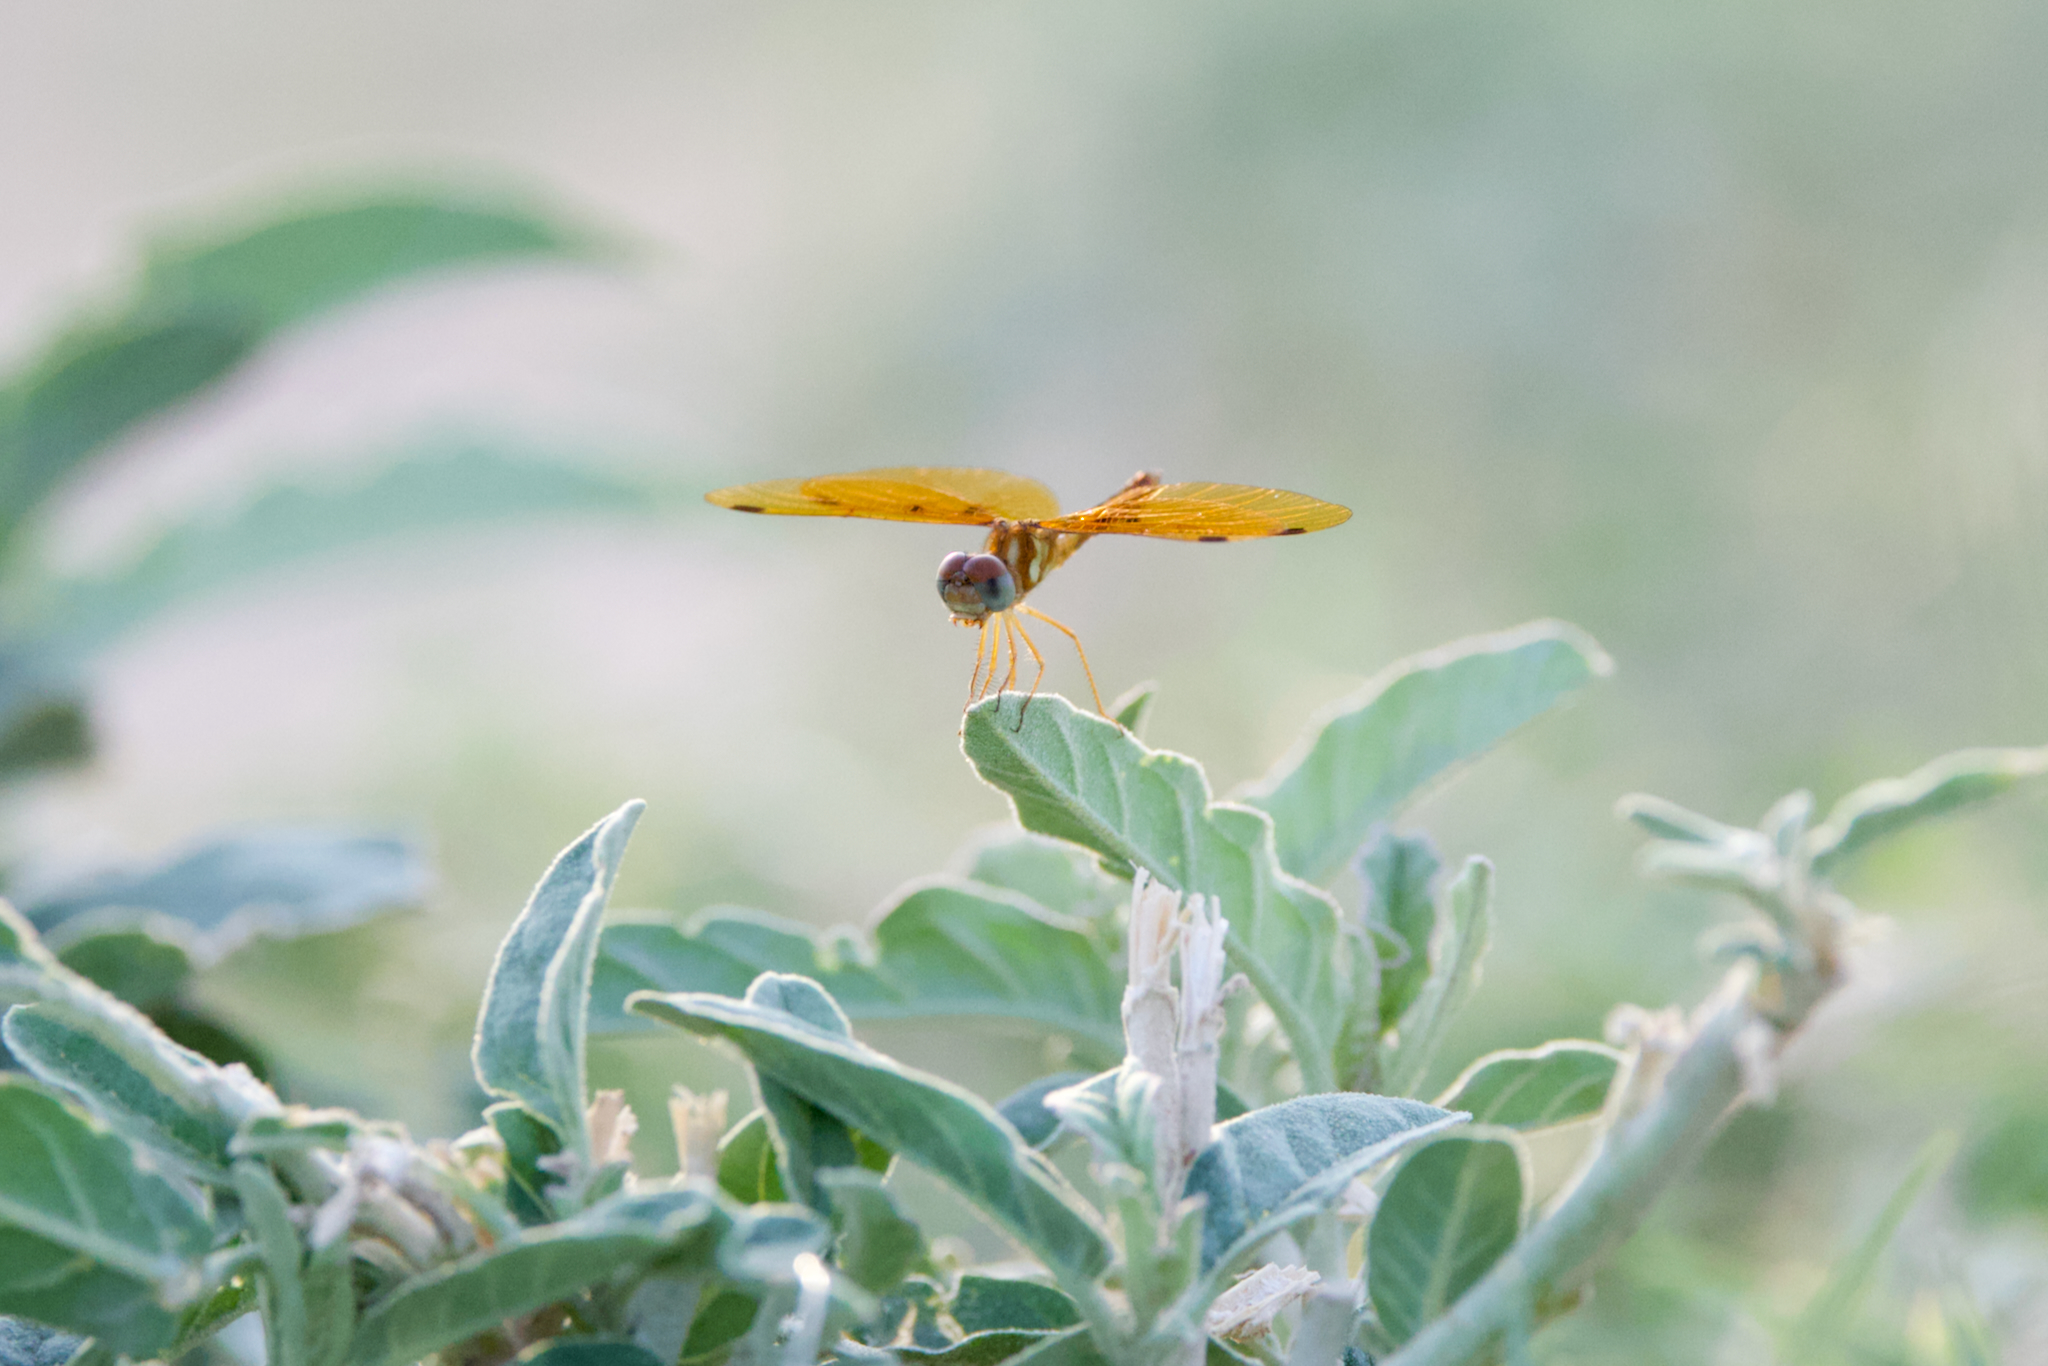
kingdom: Animalia
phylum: Arthropoda
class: Insecta
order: Odonata
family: Libellulidae
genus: Perithemis
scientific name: Perithemis tenera
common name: Eastern amberwing
